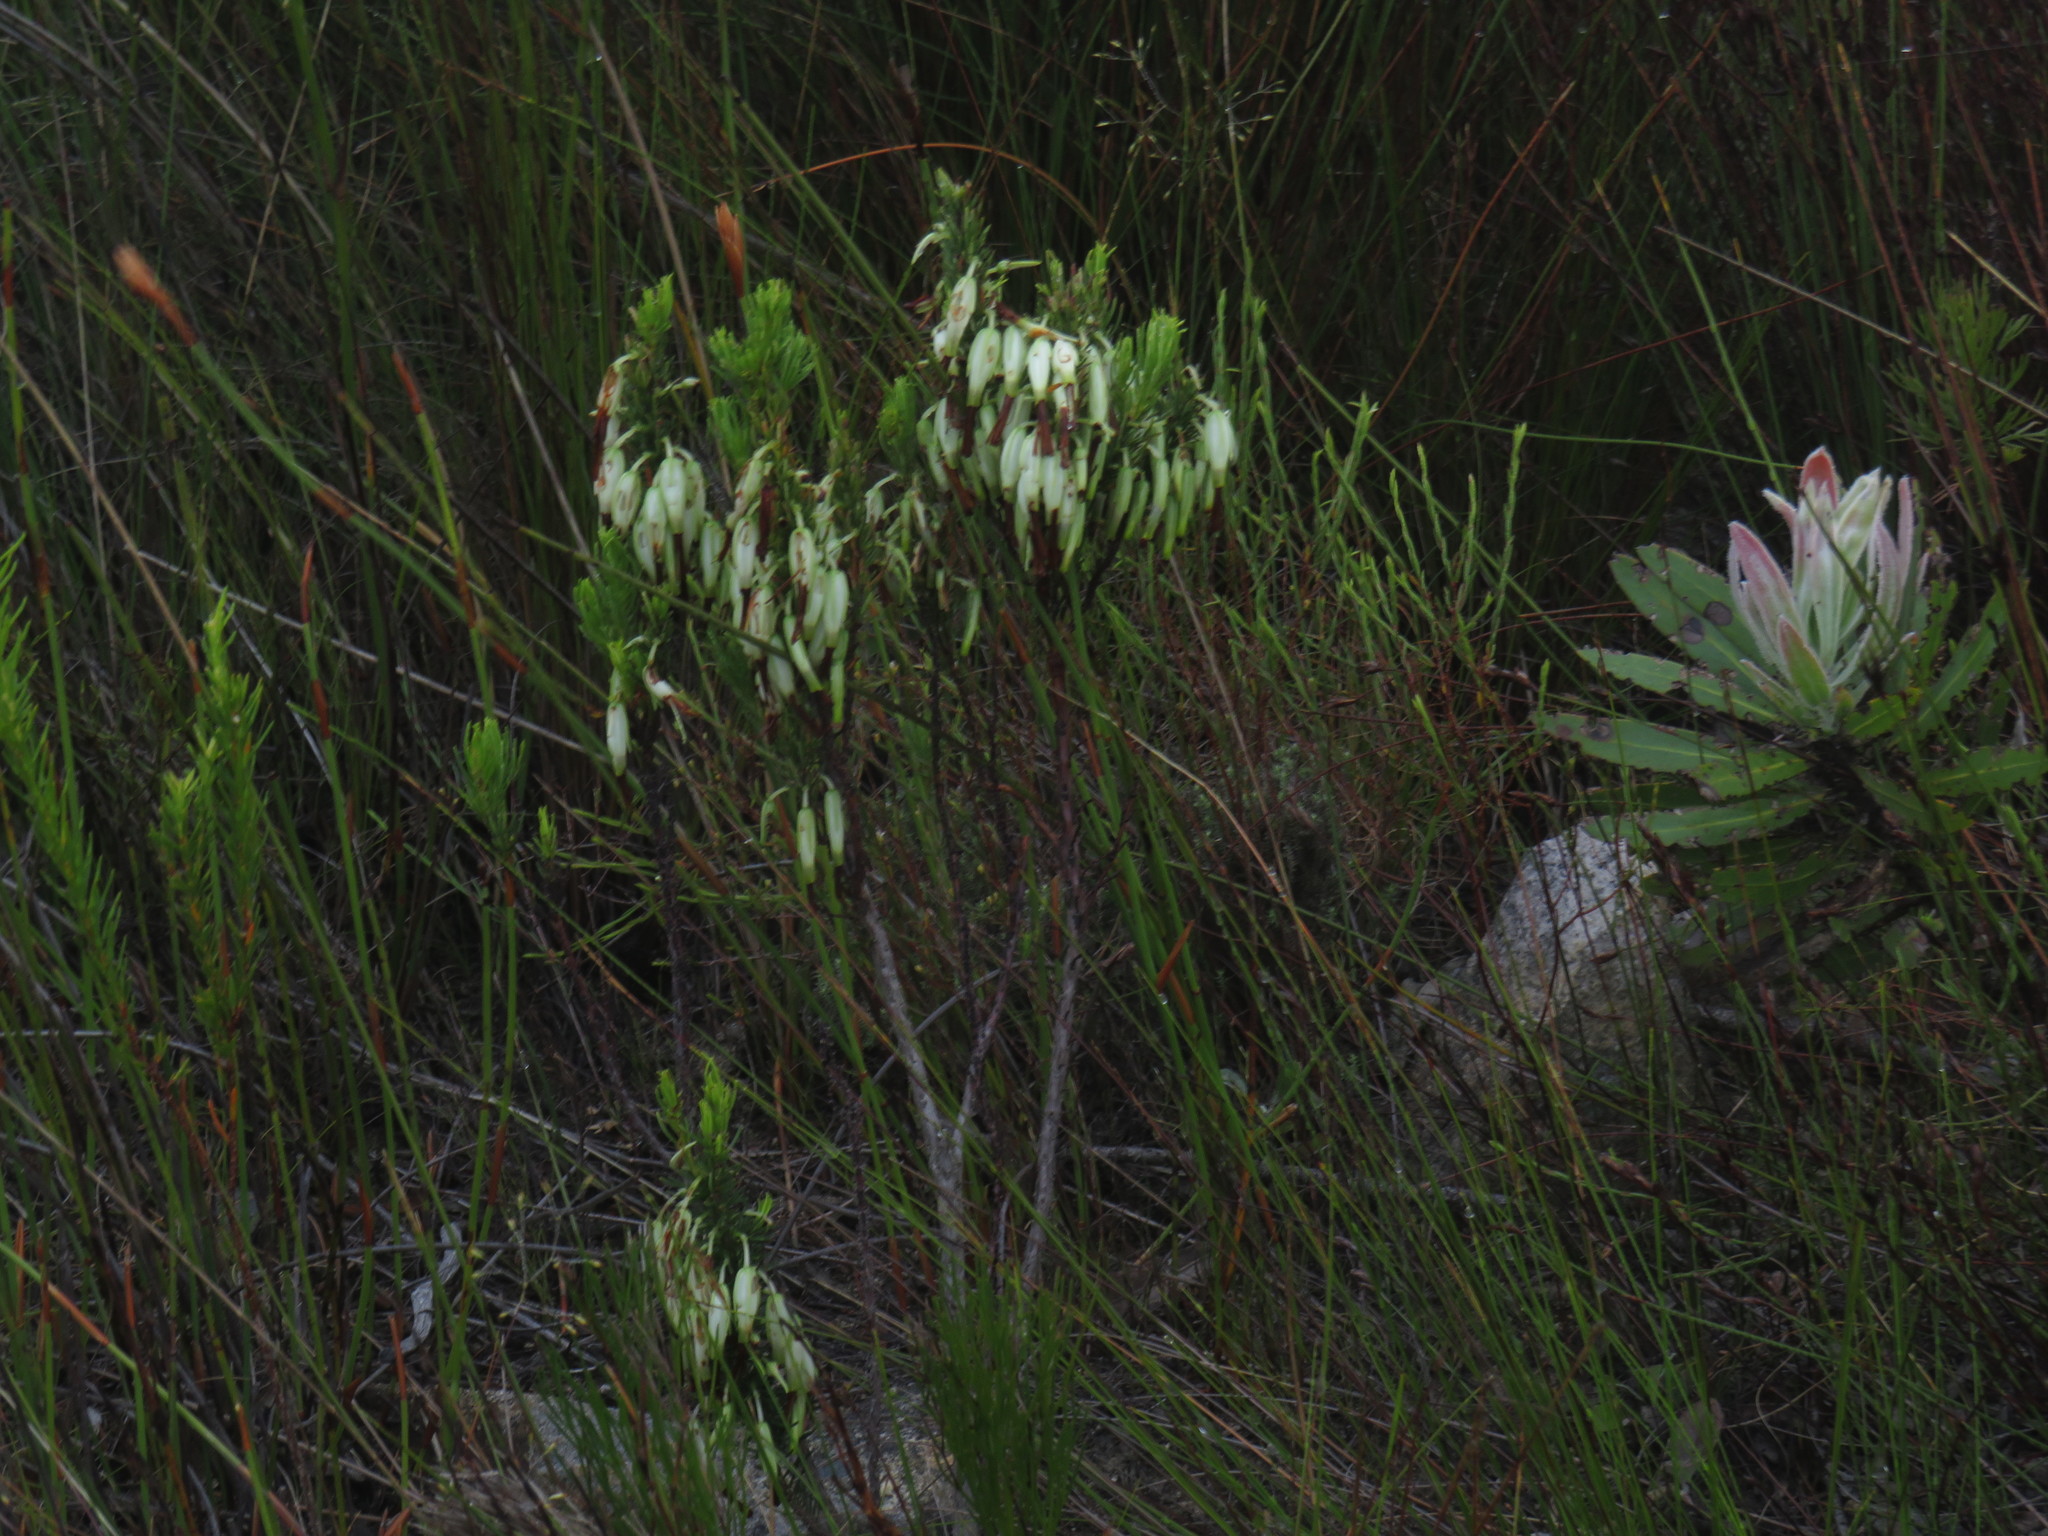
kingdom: Plantae
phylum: Tracheophyta
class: Magnoliopsida
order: Ericales
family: Ericaceae
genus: Erica
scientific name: Erica plukenetii
